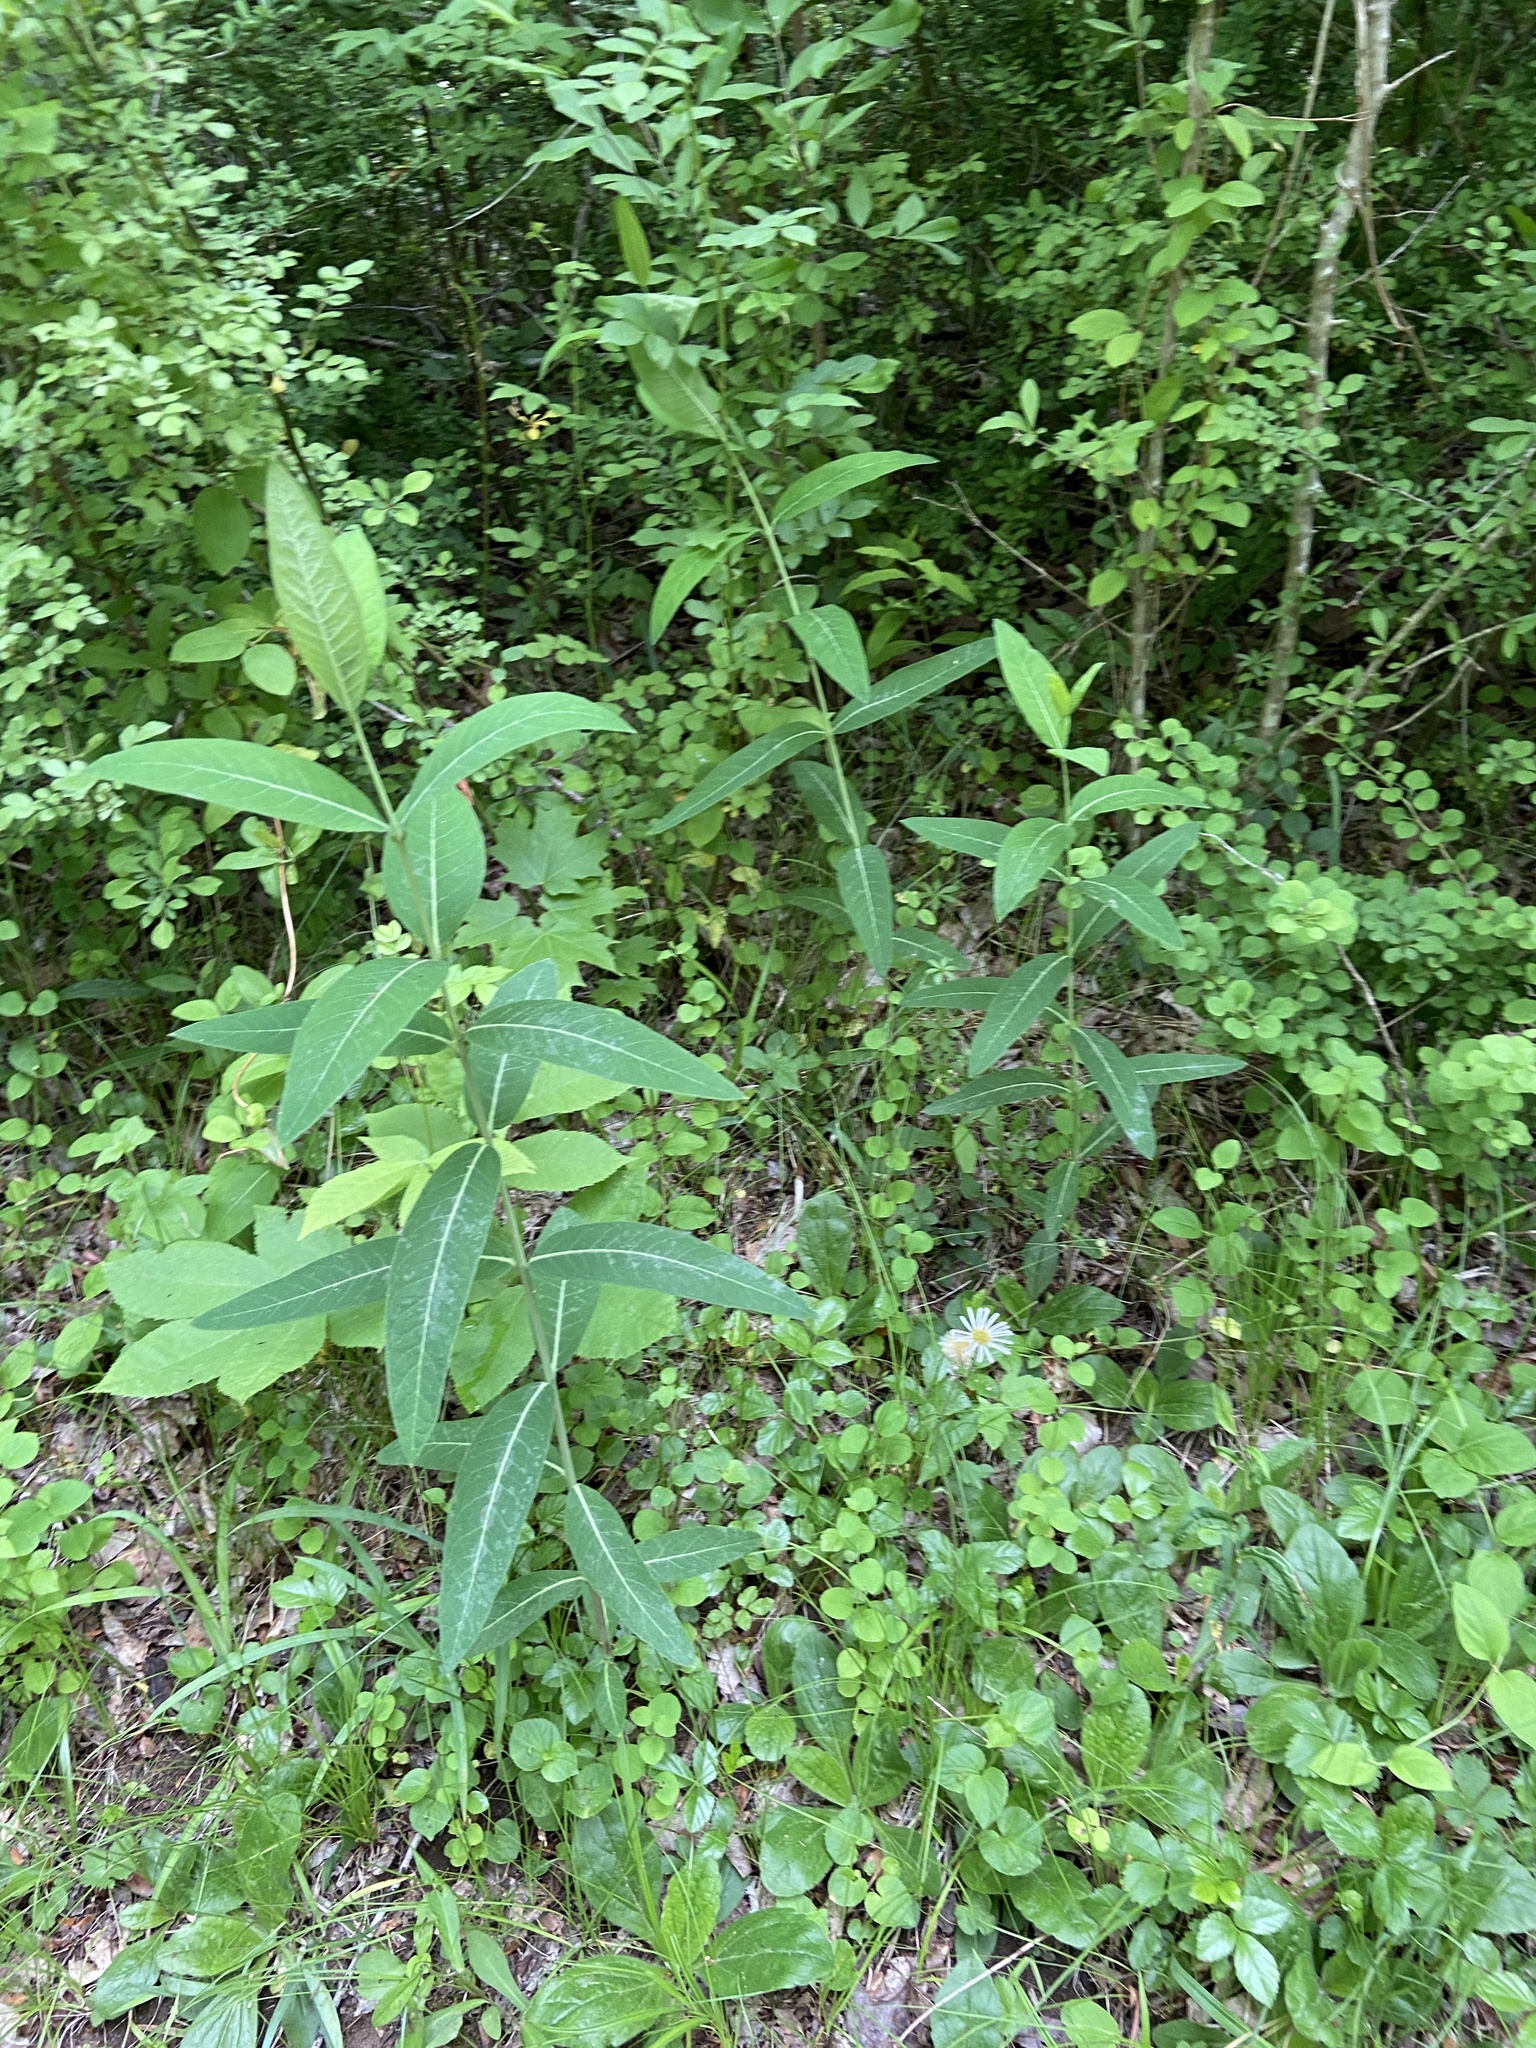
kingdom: Plantae
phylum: Tracheophyta
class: Magnoliopsida
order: Gentianales
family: Apocynaceae
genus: Apocynum
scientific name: Apocynum cannabinum
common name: Hemp dogbane
